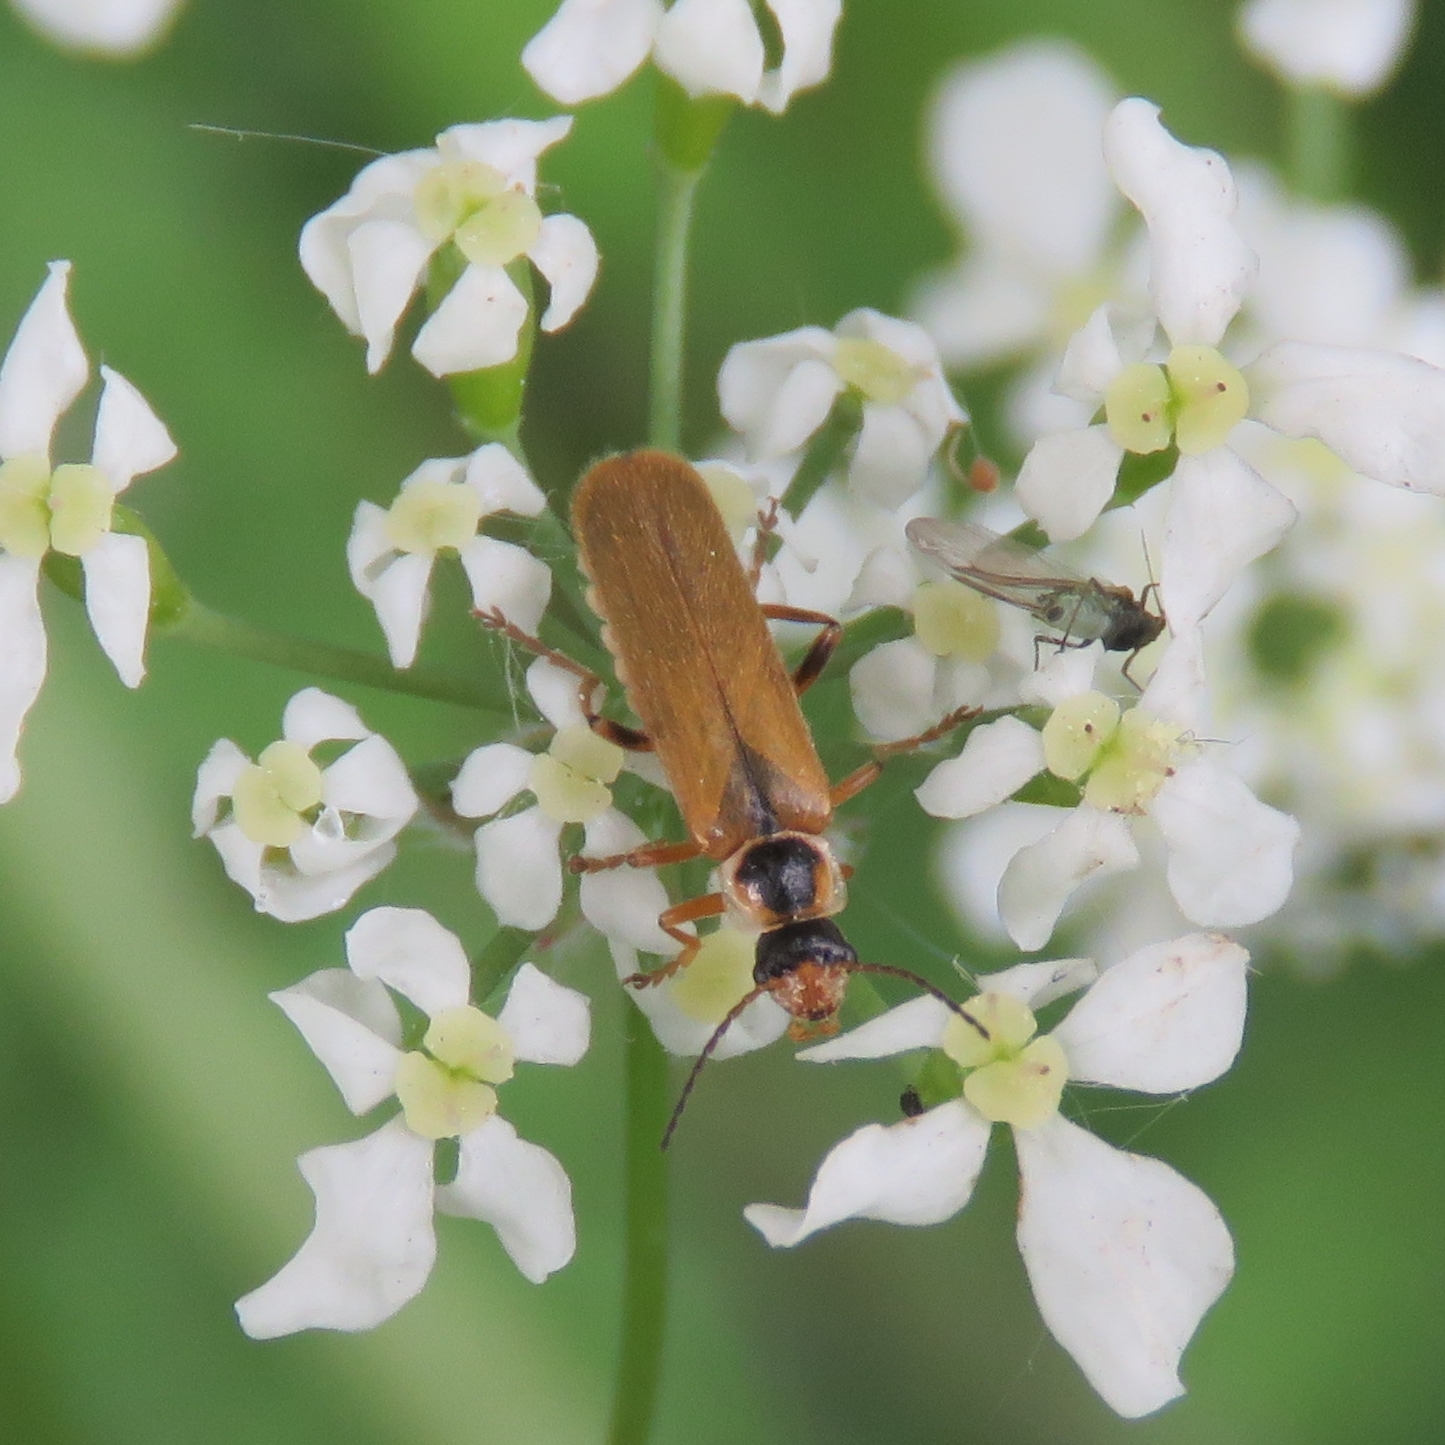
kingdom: Animalia
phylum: Arthropoda
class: Insecta
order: Coleoptera
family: Cantharidae
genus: Cantharis
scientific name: Cantharis decipiens
